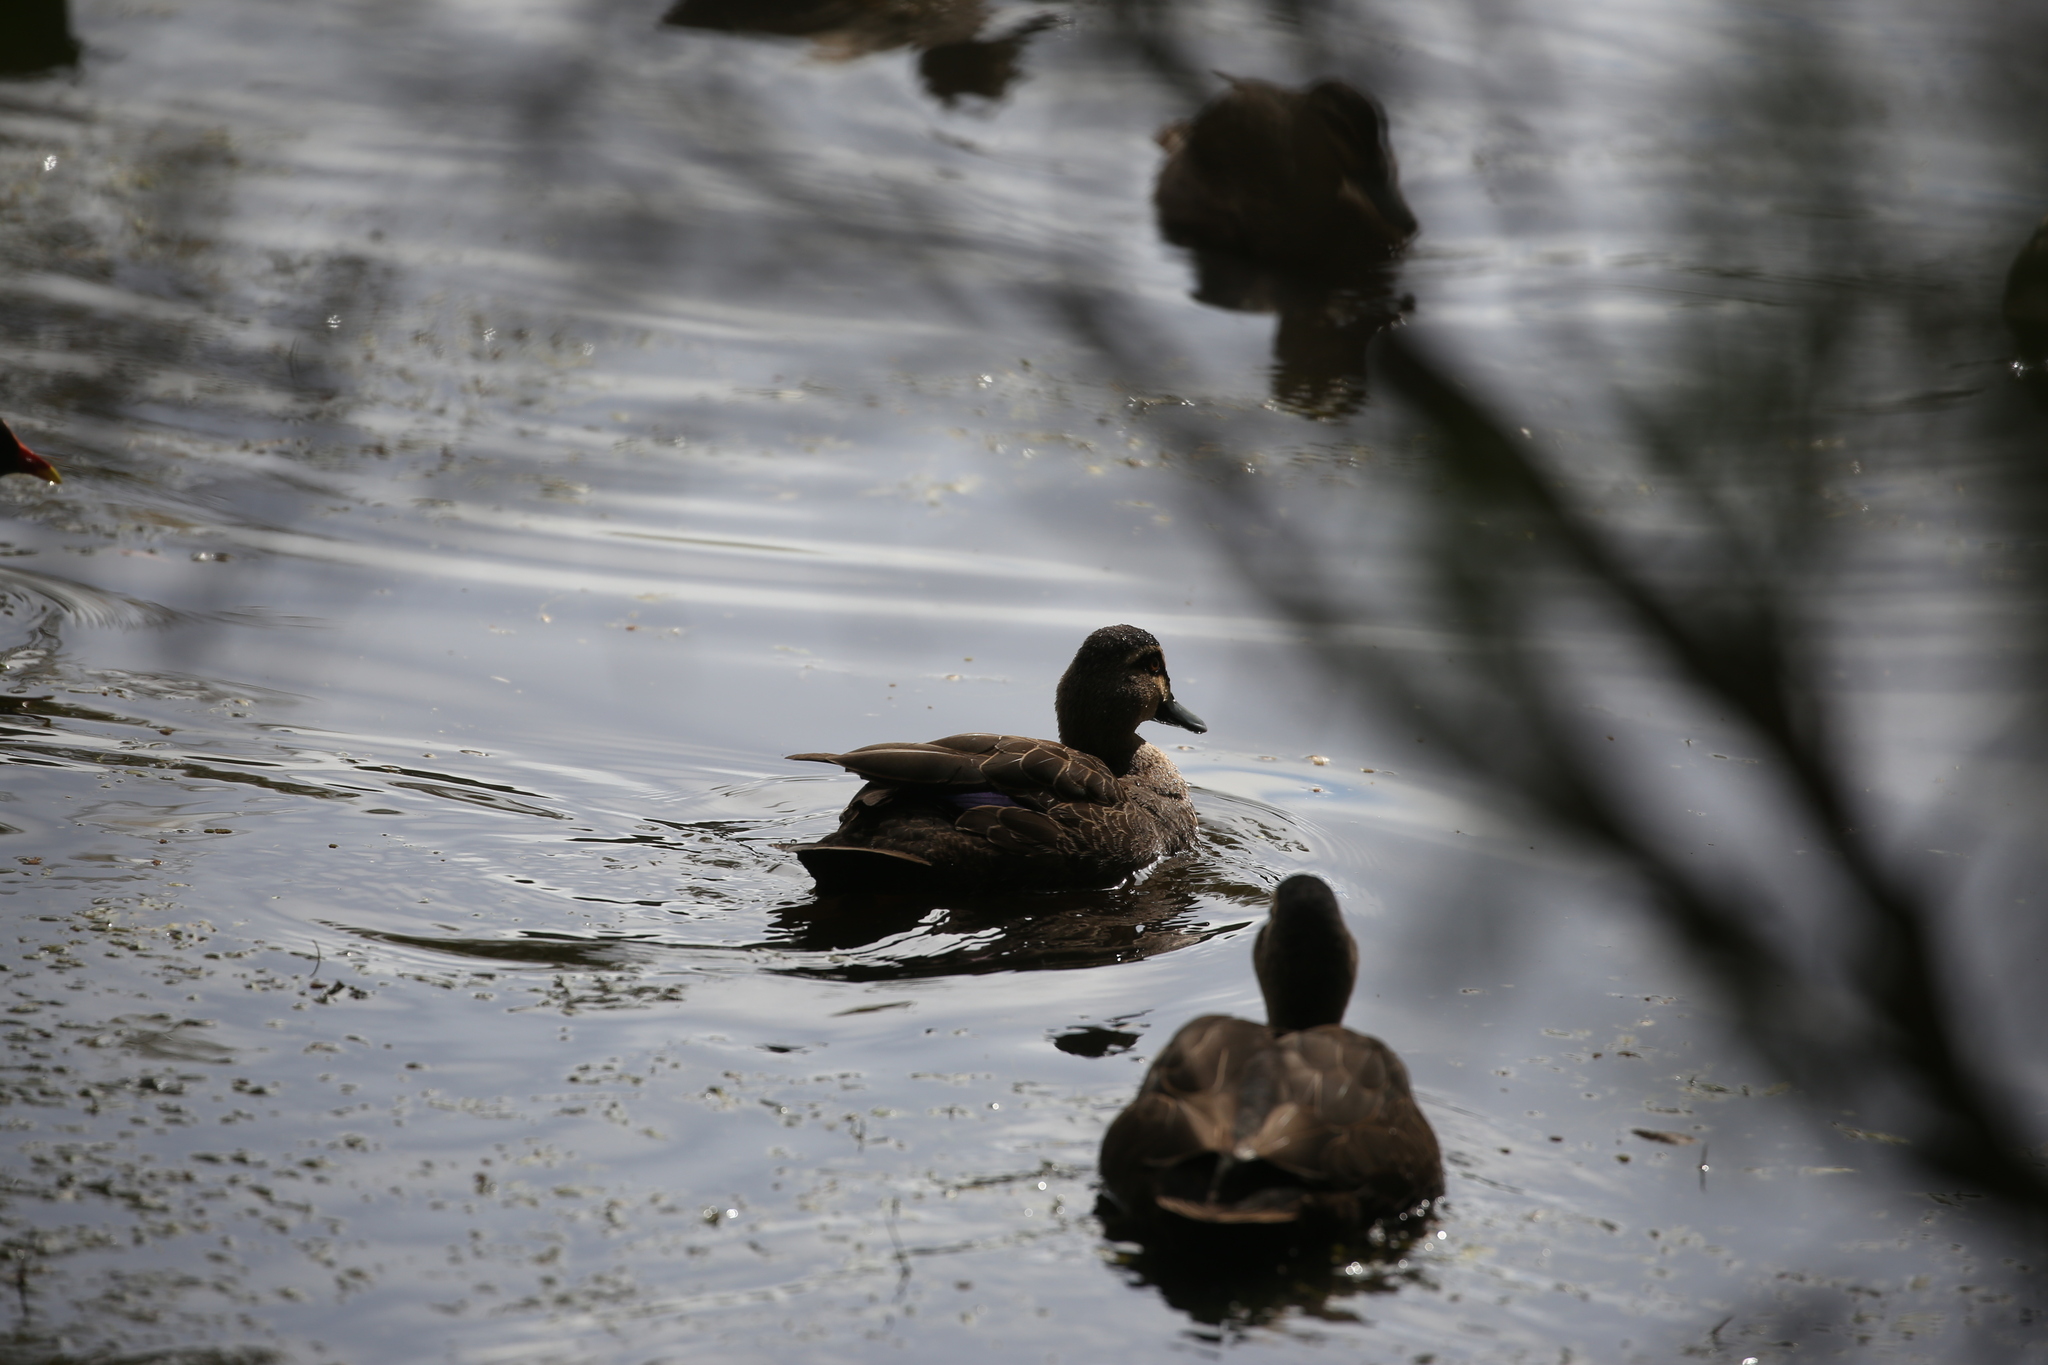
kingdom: Animalia
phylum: Chordata
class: Aves
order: Anseriformes
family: Anatidae
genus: Anas
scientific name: Anas superciliosa
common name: Pacific black duck
